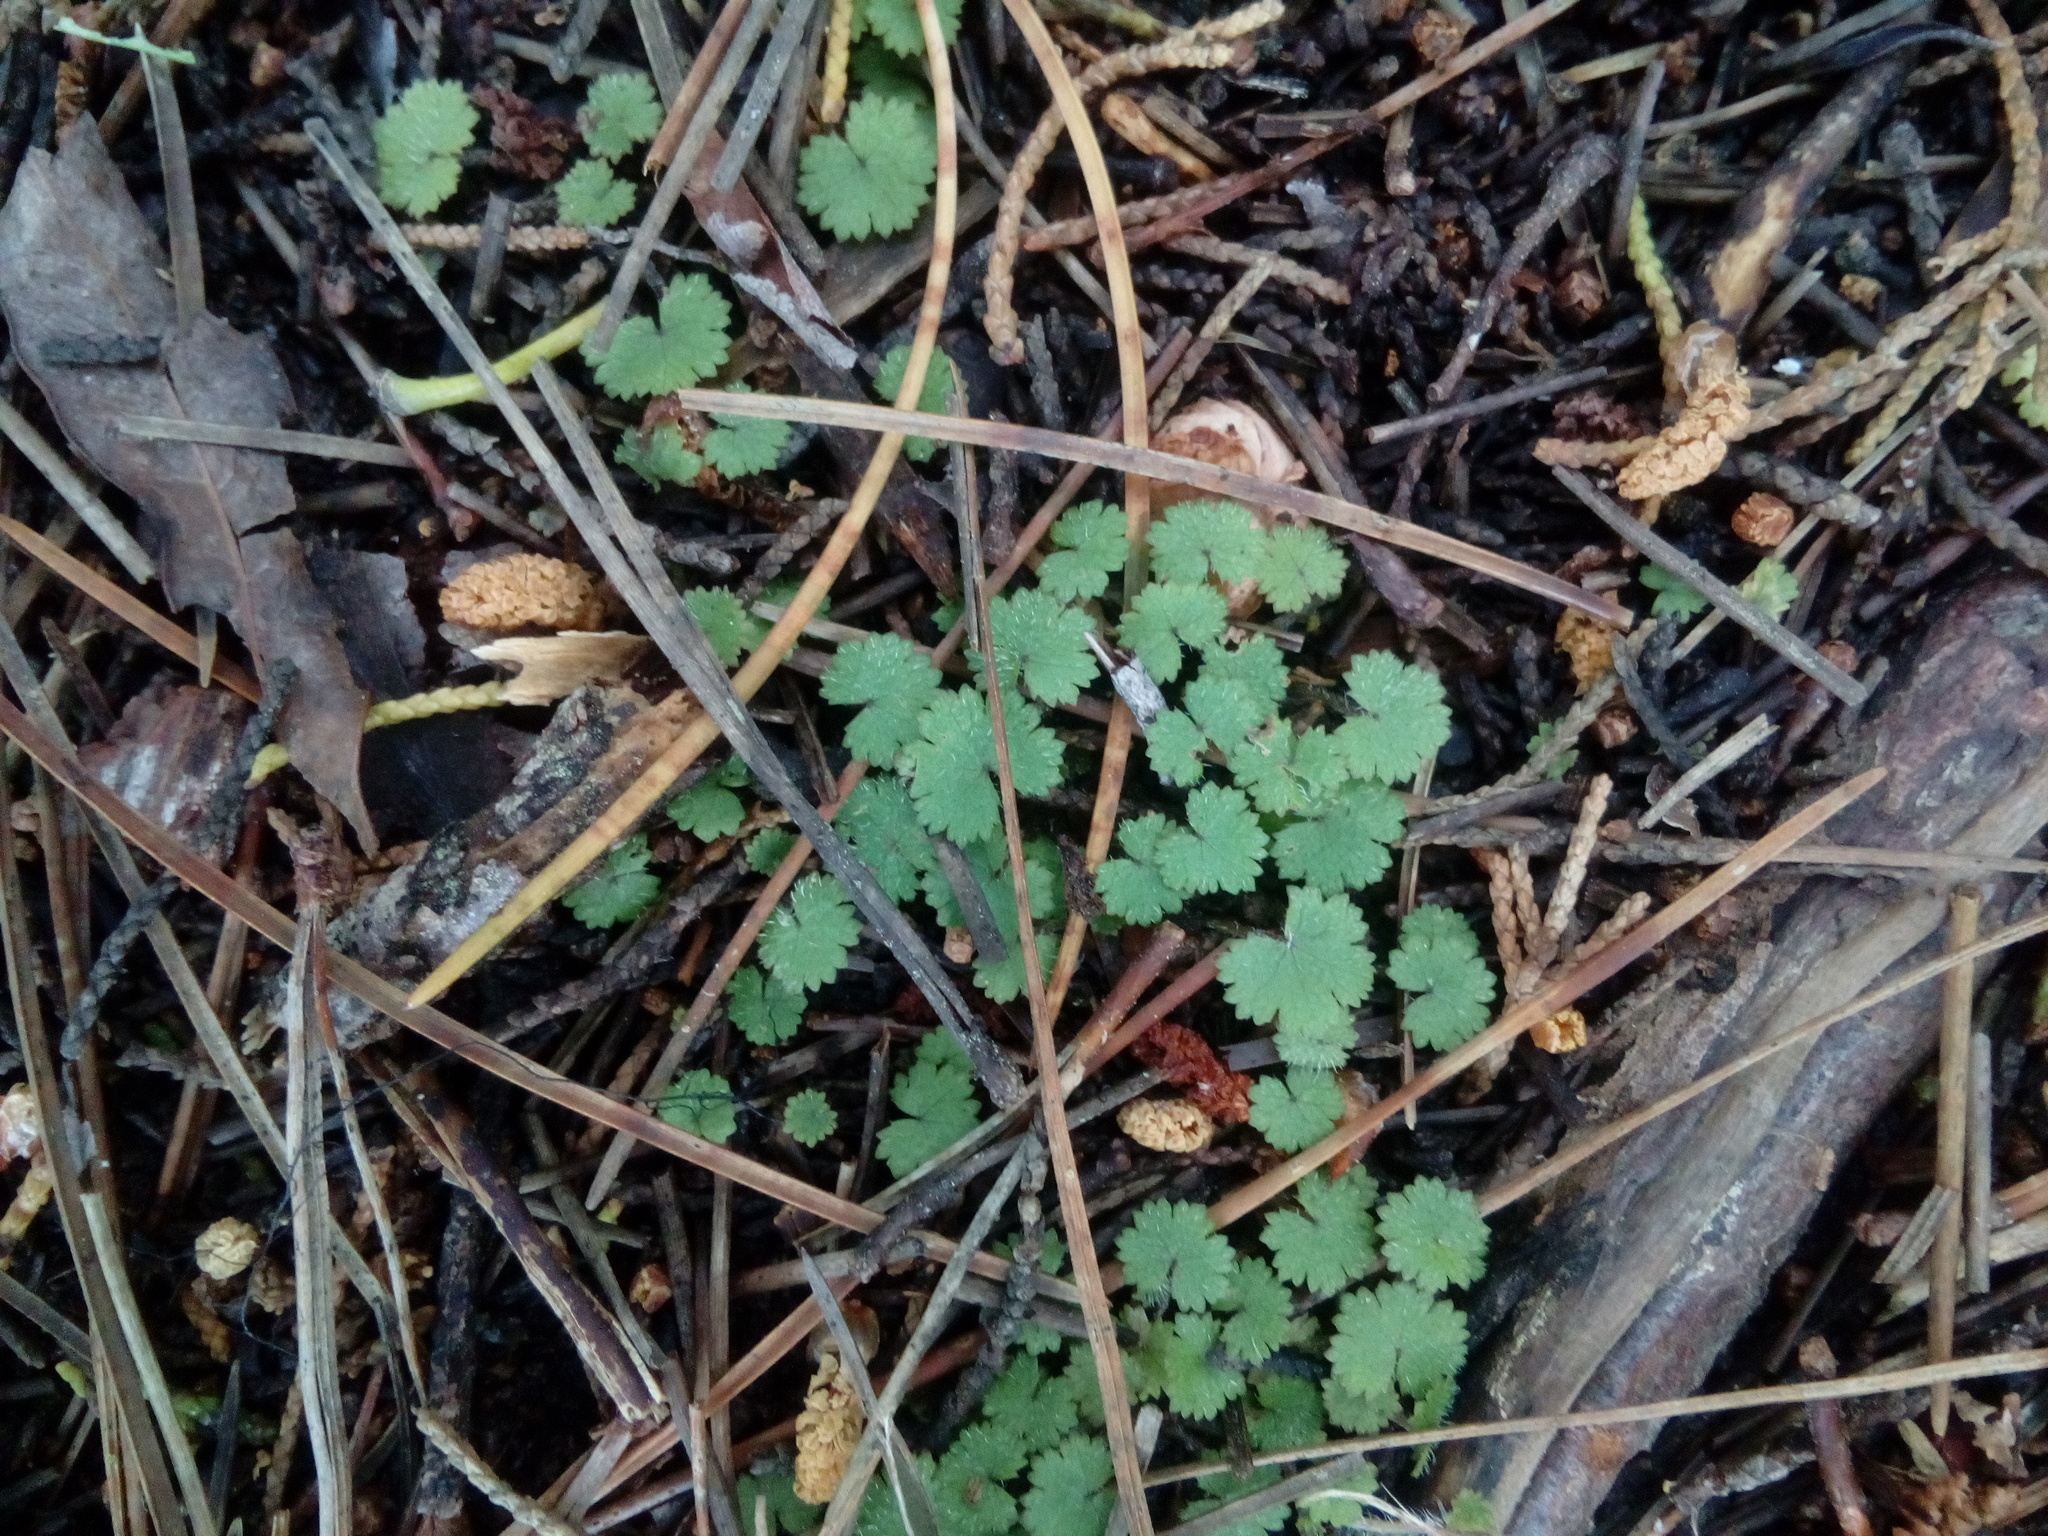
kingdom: Plantae
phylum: Tracheophyta
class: Magnoliopsida
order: Apiales
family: Araliaceae
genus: Hydrocotyle
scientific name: Hydrocotyle moschata
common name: Hairy pennywort
